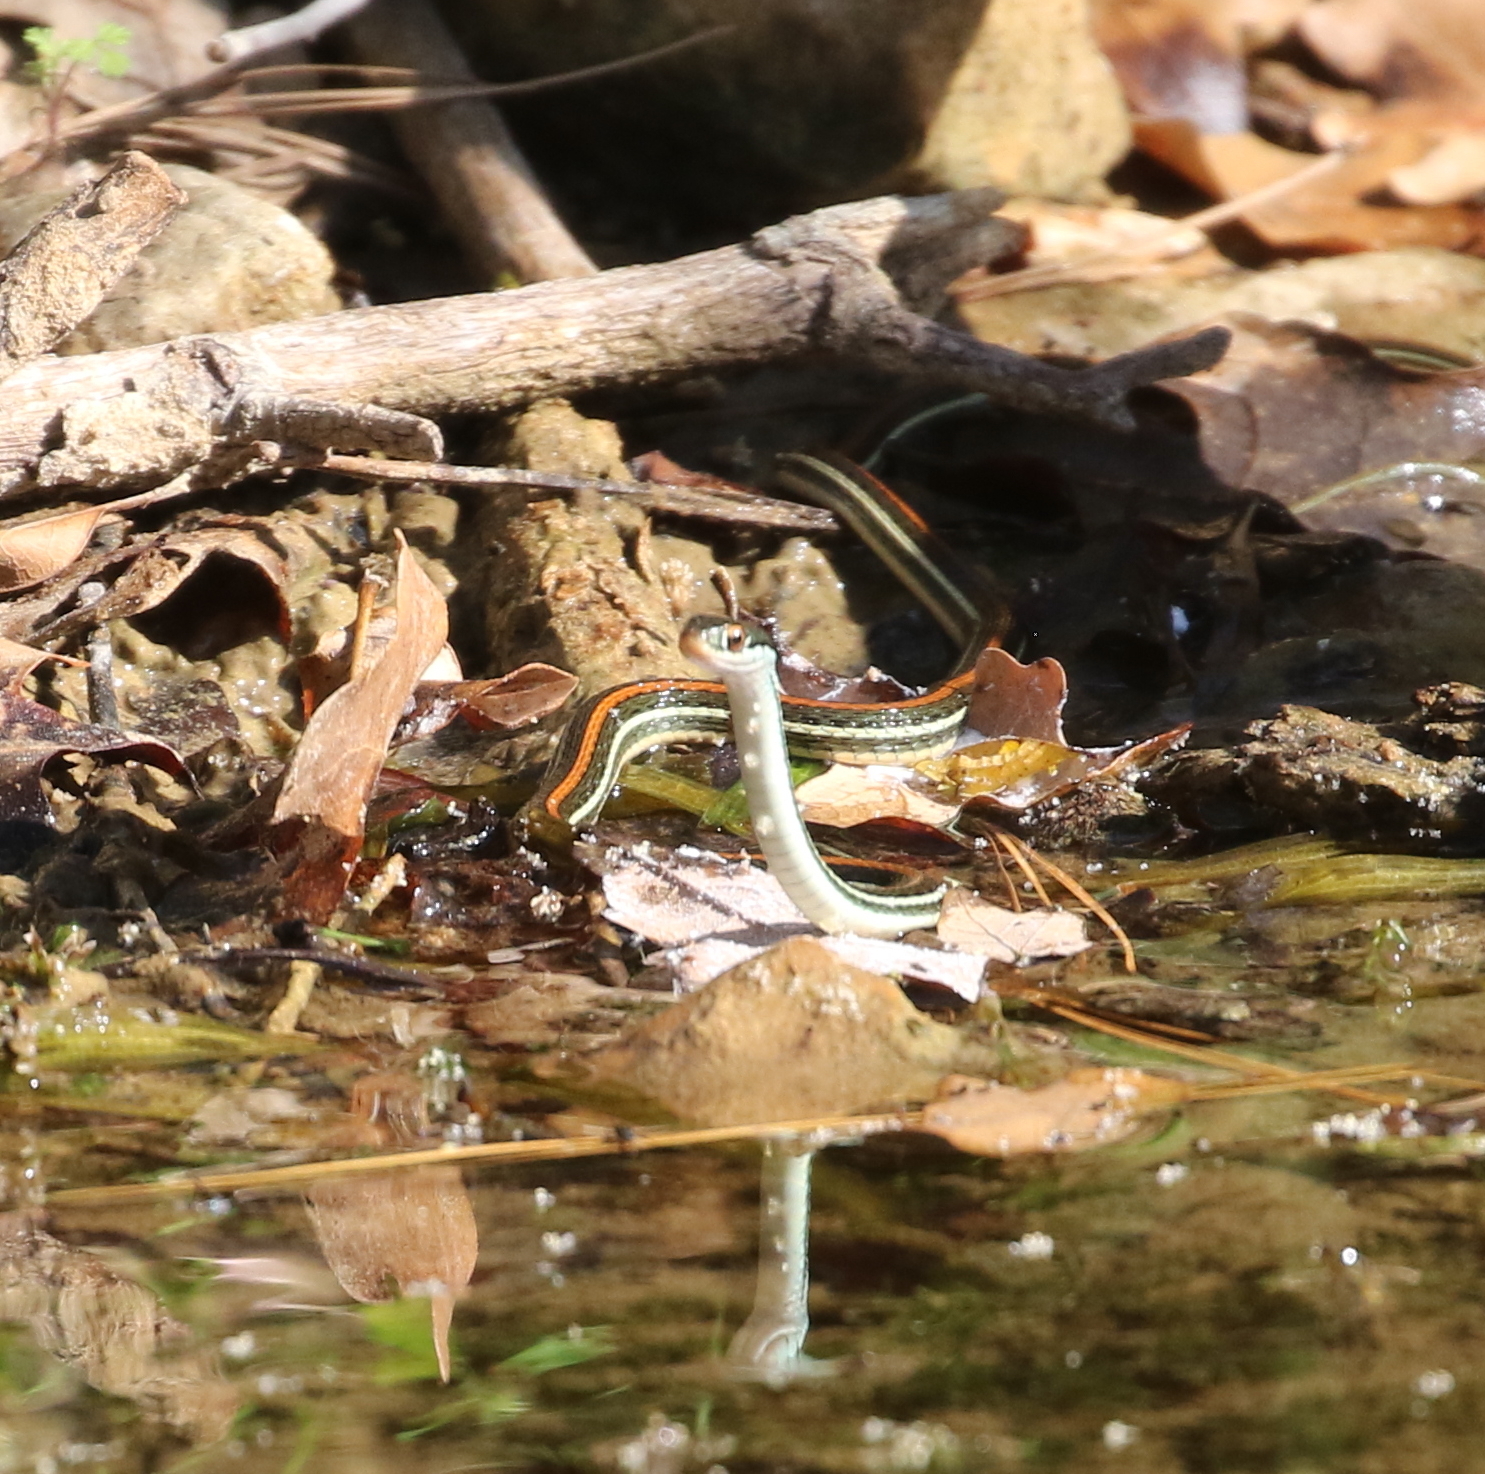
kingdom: Animalia
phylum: Chordata
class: Squamata
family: Colubridae
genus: Thamnophis
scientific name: Thamnophis proximus
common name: Western ribbon snake
